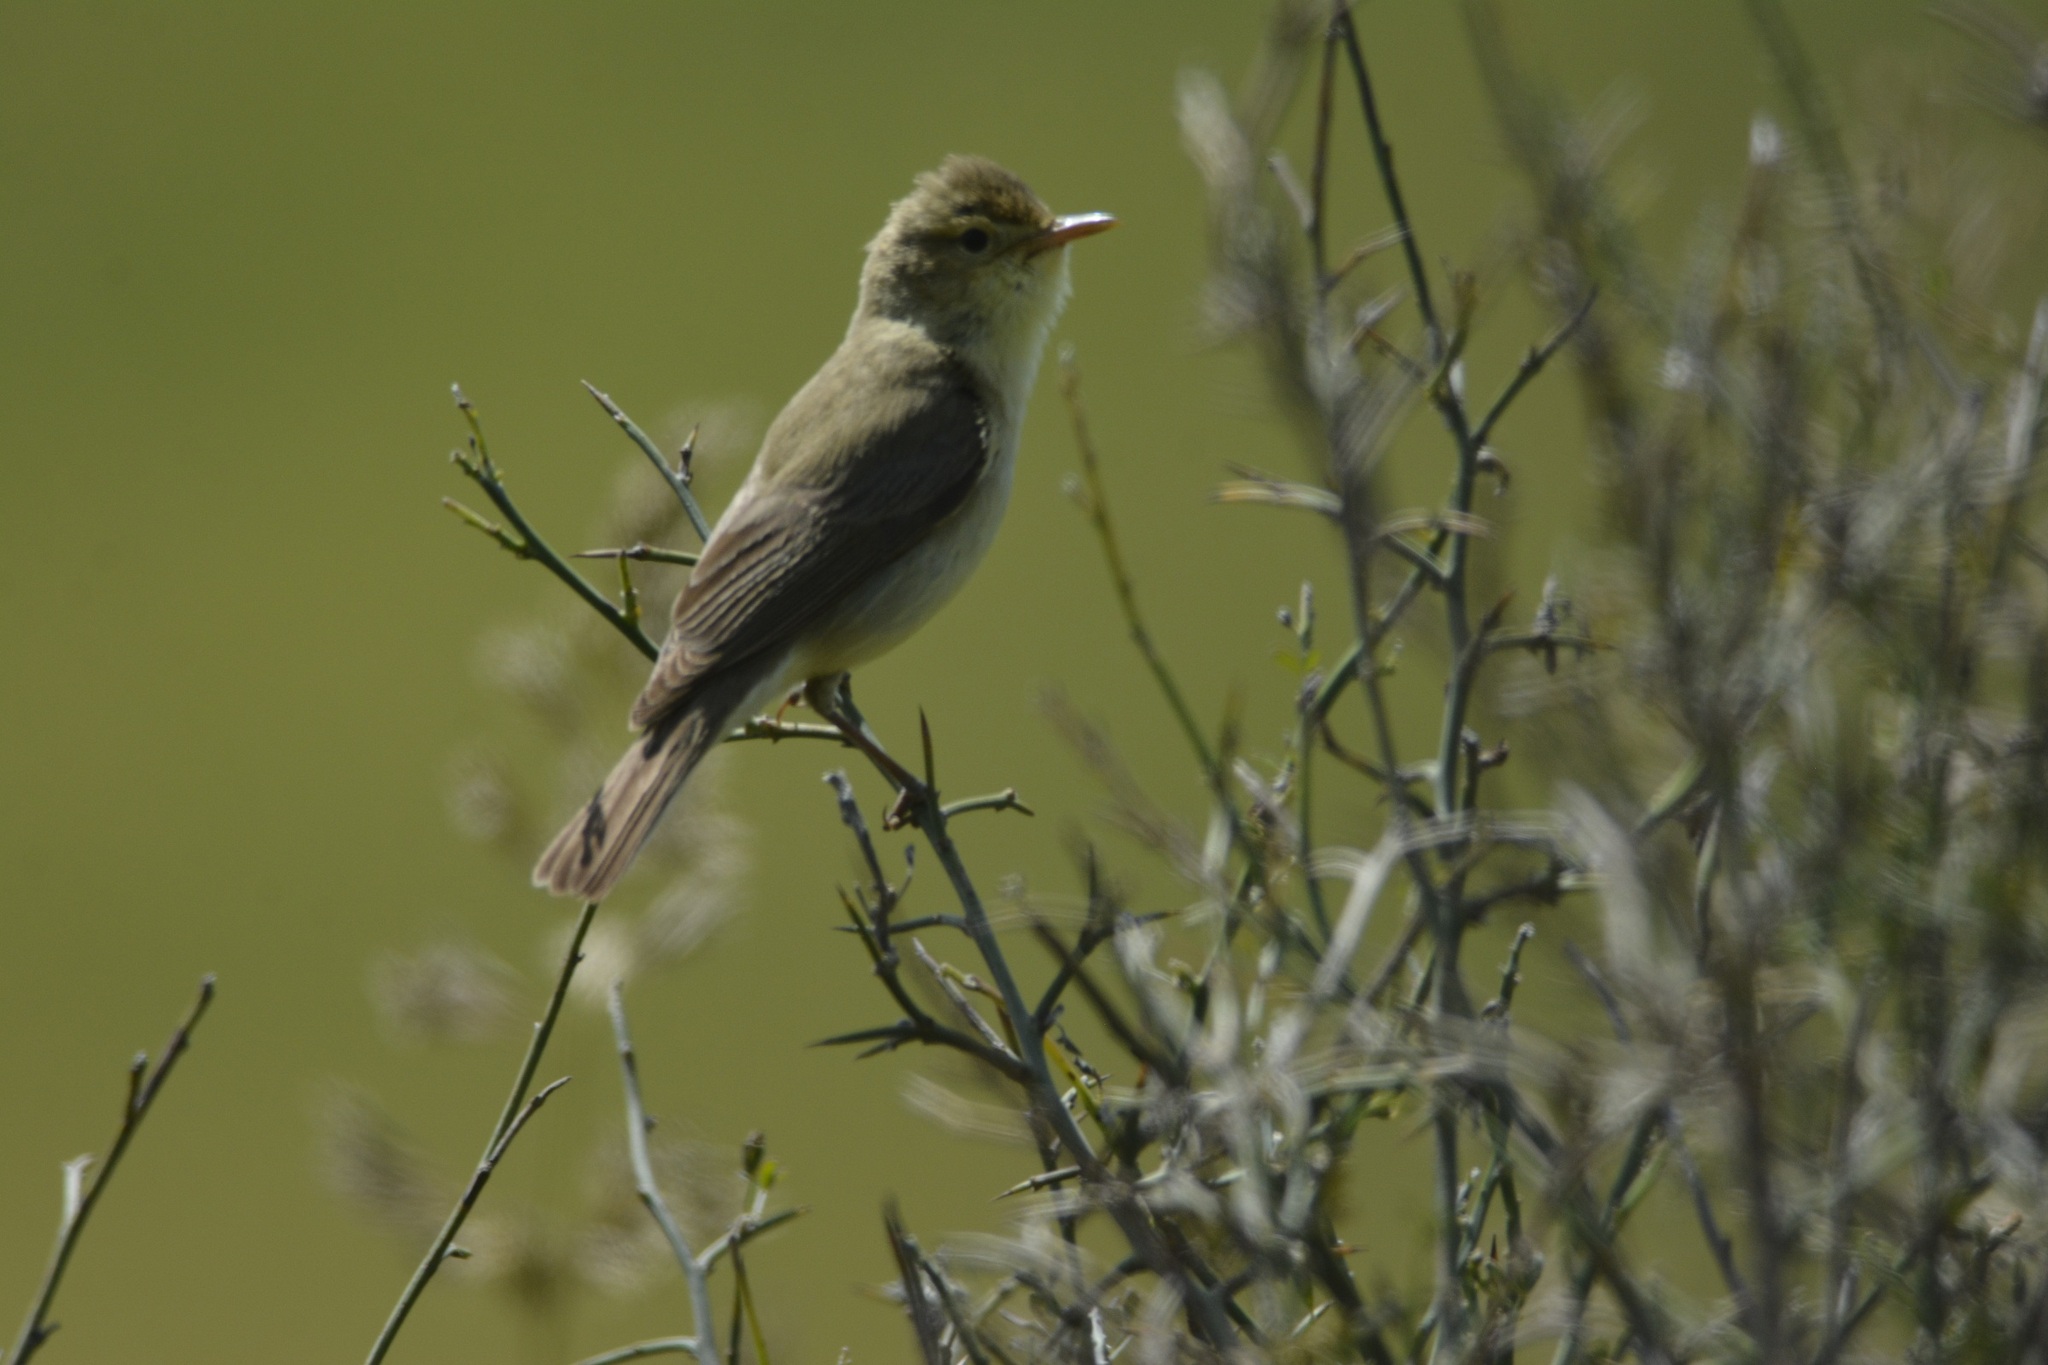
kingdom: Animalia
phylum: Chordata
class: Aves
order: Passeriformes
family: Acrocephalidae
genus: Hippolais
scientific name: Hippolais polyglotta
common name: Melodious warbler
